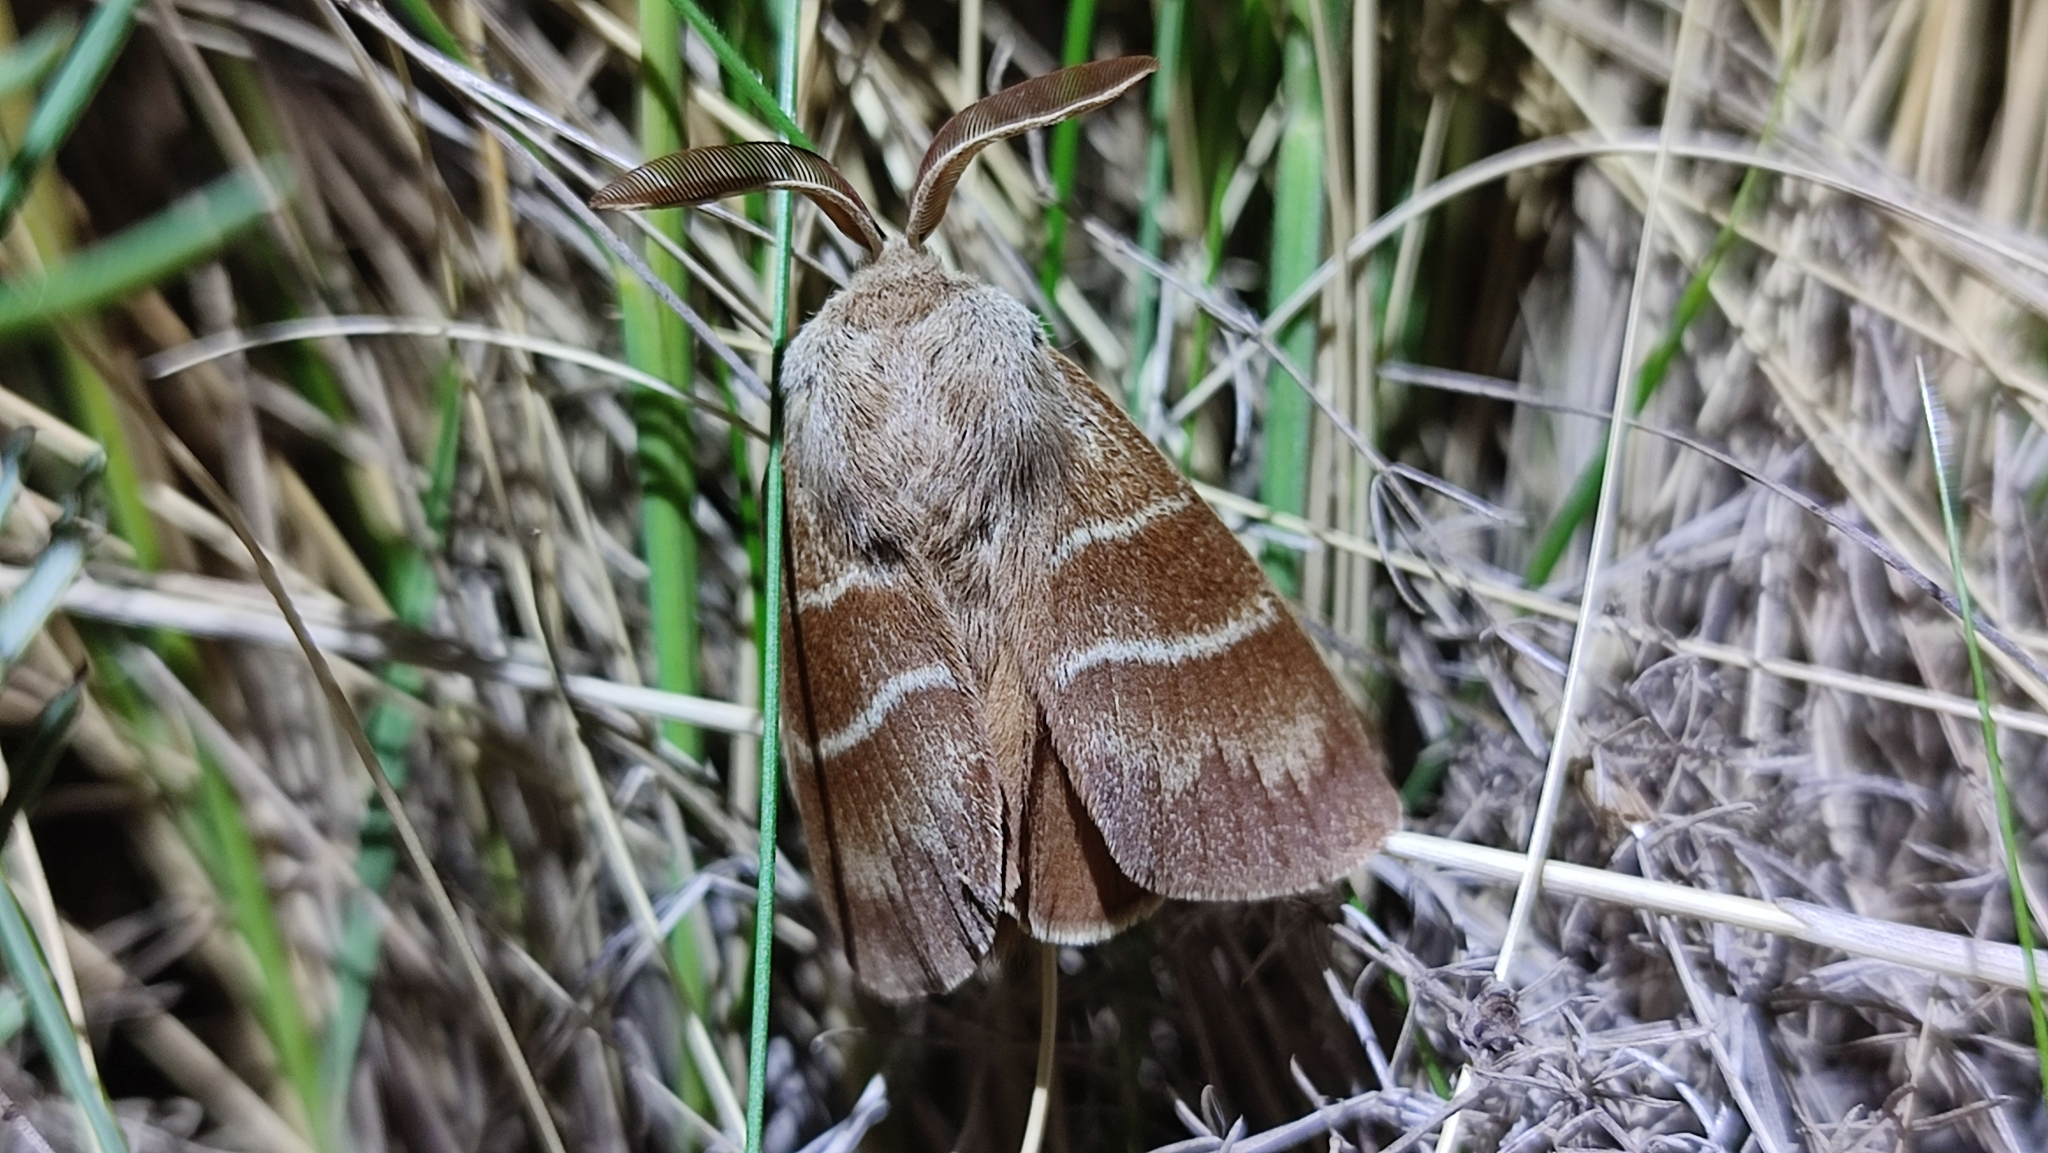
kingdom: Animalia
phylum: Arthropoda
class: Insecta
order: Lepidoptera
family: Lasiocampidae
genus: Macrothylacia
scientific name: Macrothylacia rubi
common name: Fox moth
